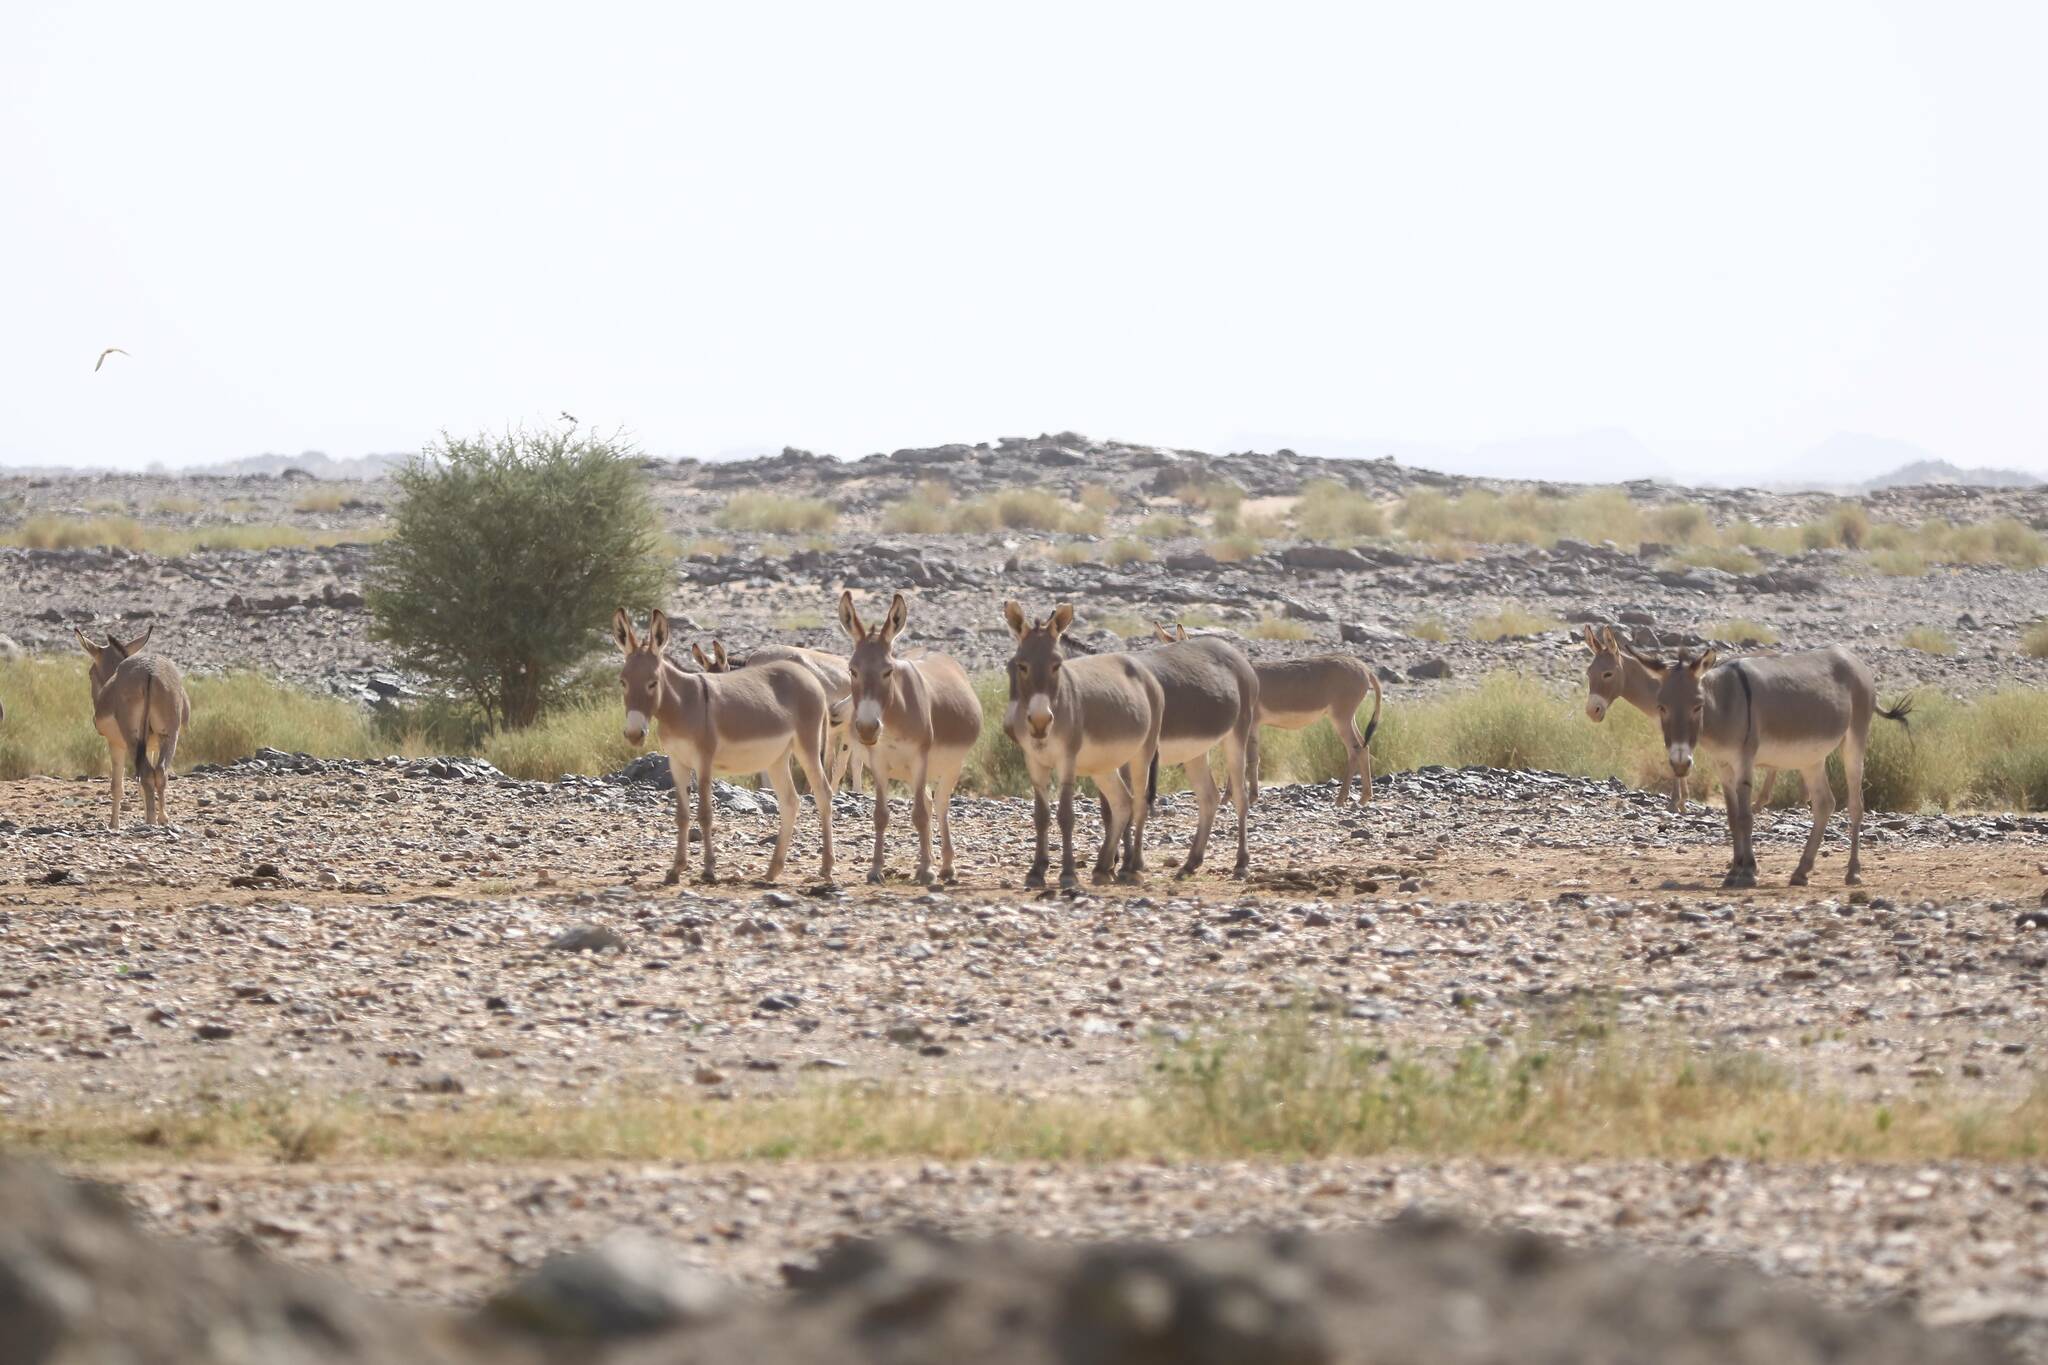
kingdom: Animalia
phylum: Chordata
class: Mammalia
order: Perissodactyla
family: Equidae
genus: Equus
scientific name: Equus asinus
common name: Ass
